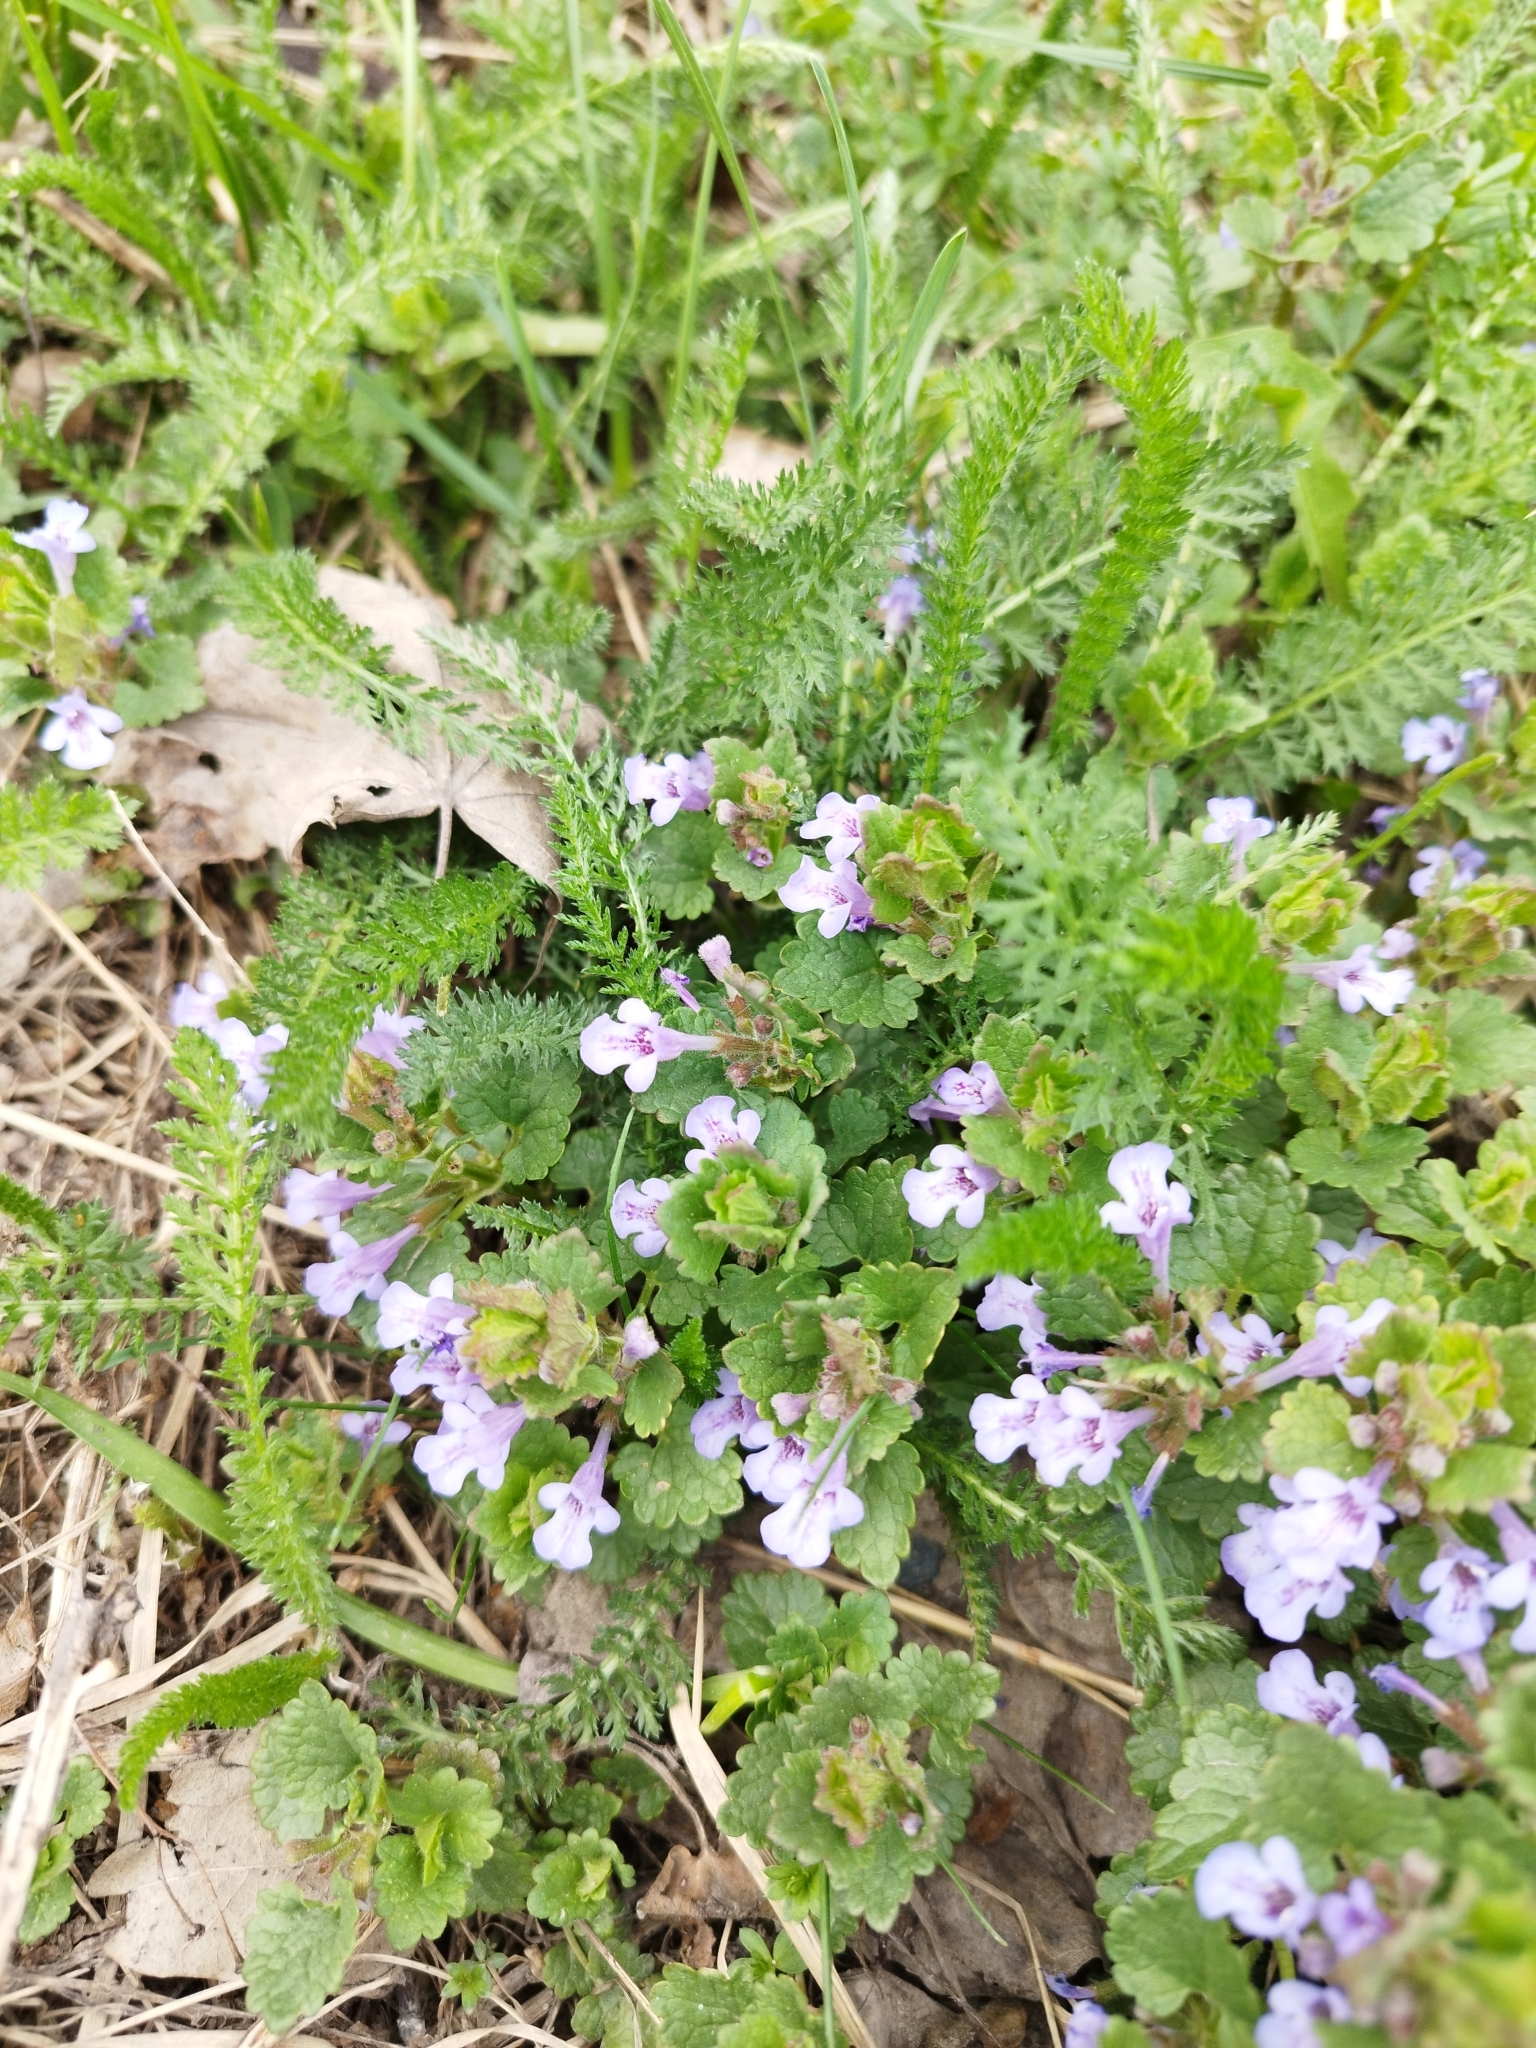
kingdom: Plantae
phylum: Tracheophyta
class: Magnoliopsida
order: Lamiales
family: Lamiaceae
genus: Glechoma
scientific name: Glechoma hederacea
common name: Ground ivy
